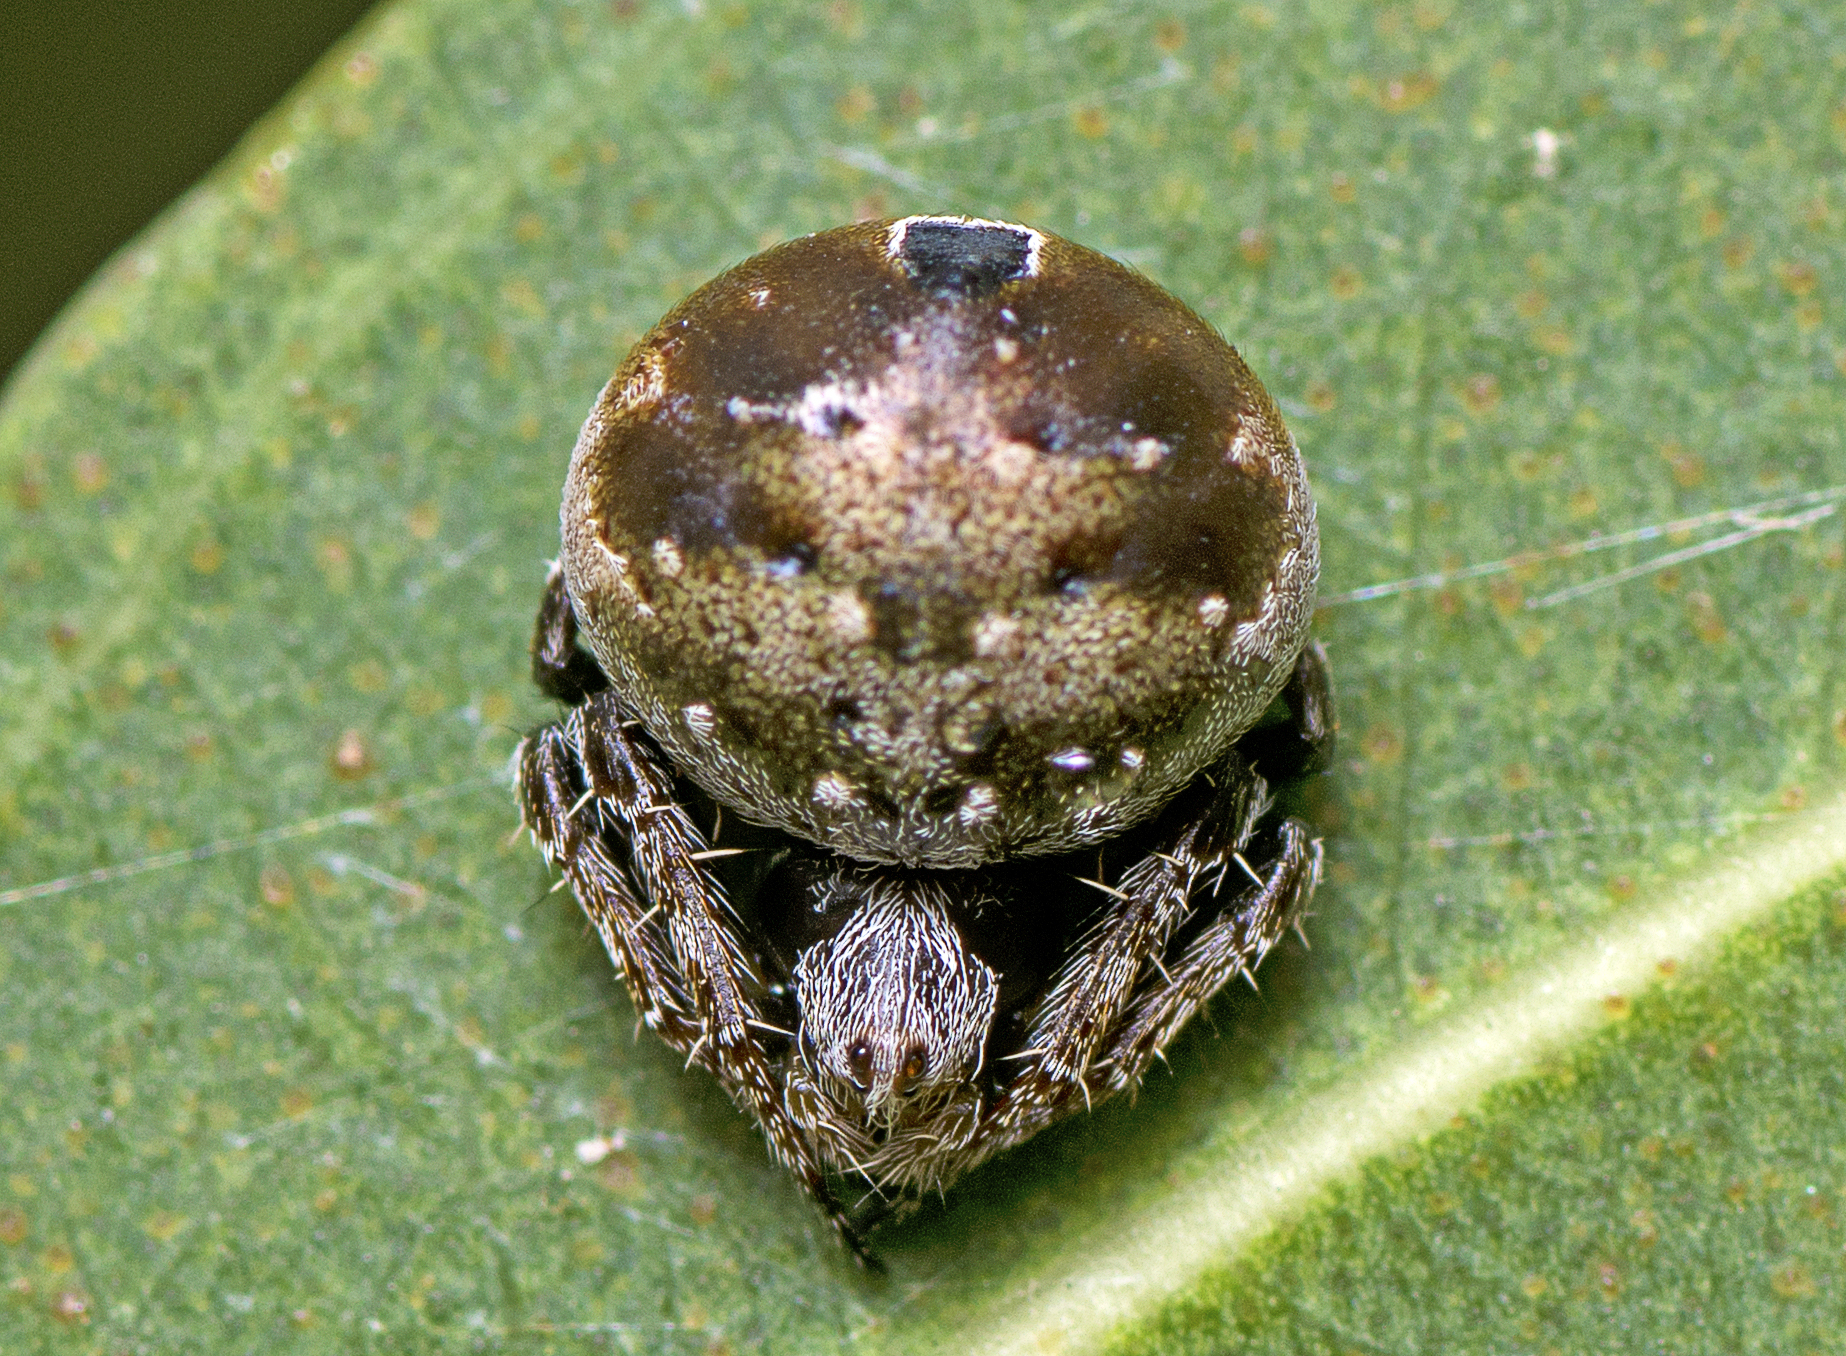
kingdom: Animalia
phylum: Arthropoda
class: Arachnida
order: Araneae
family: Araneidae
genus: Araneus
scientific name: Araneus rotundulus
